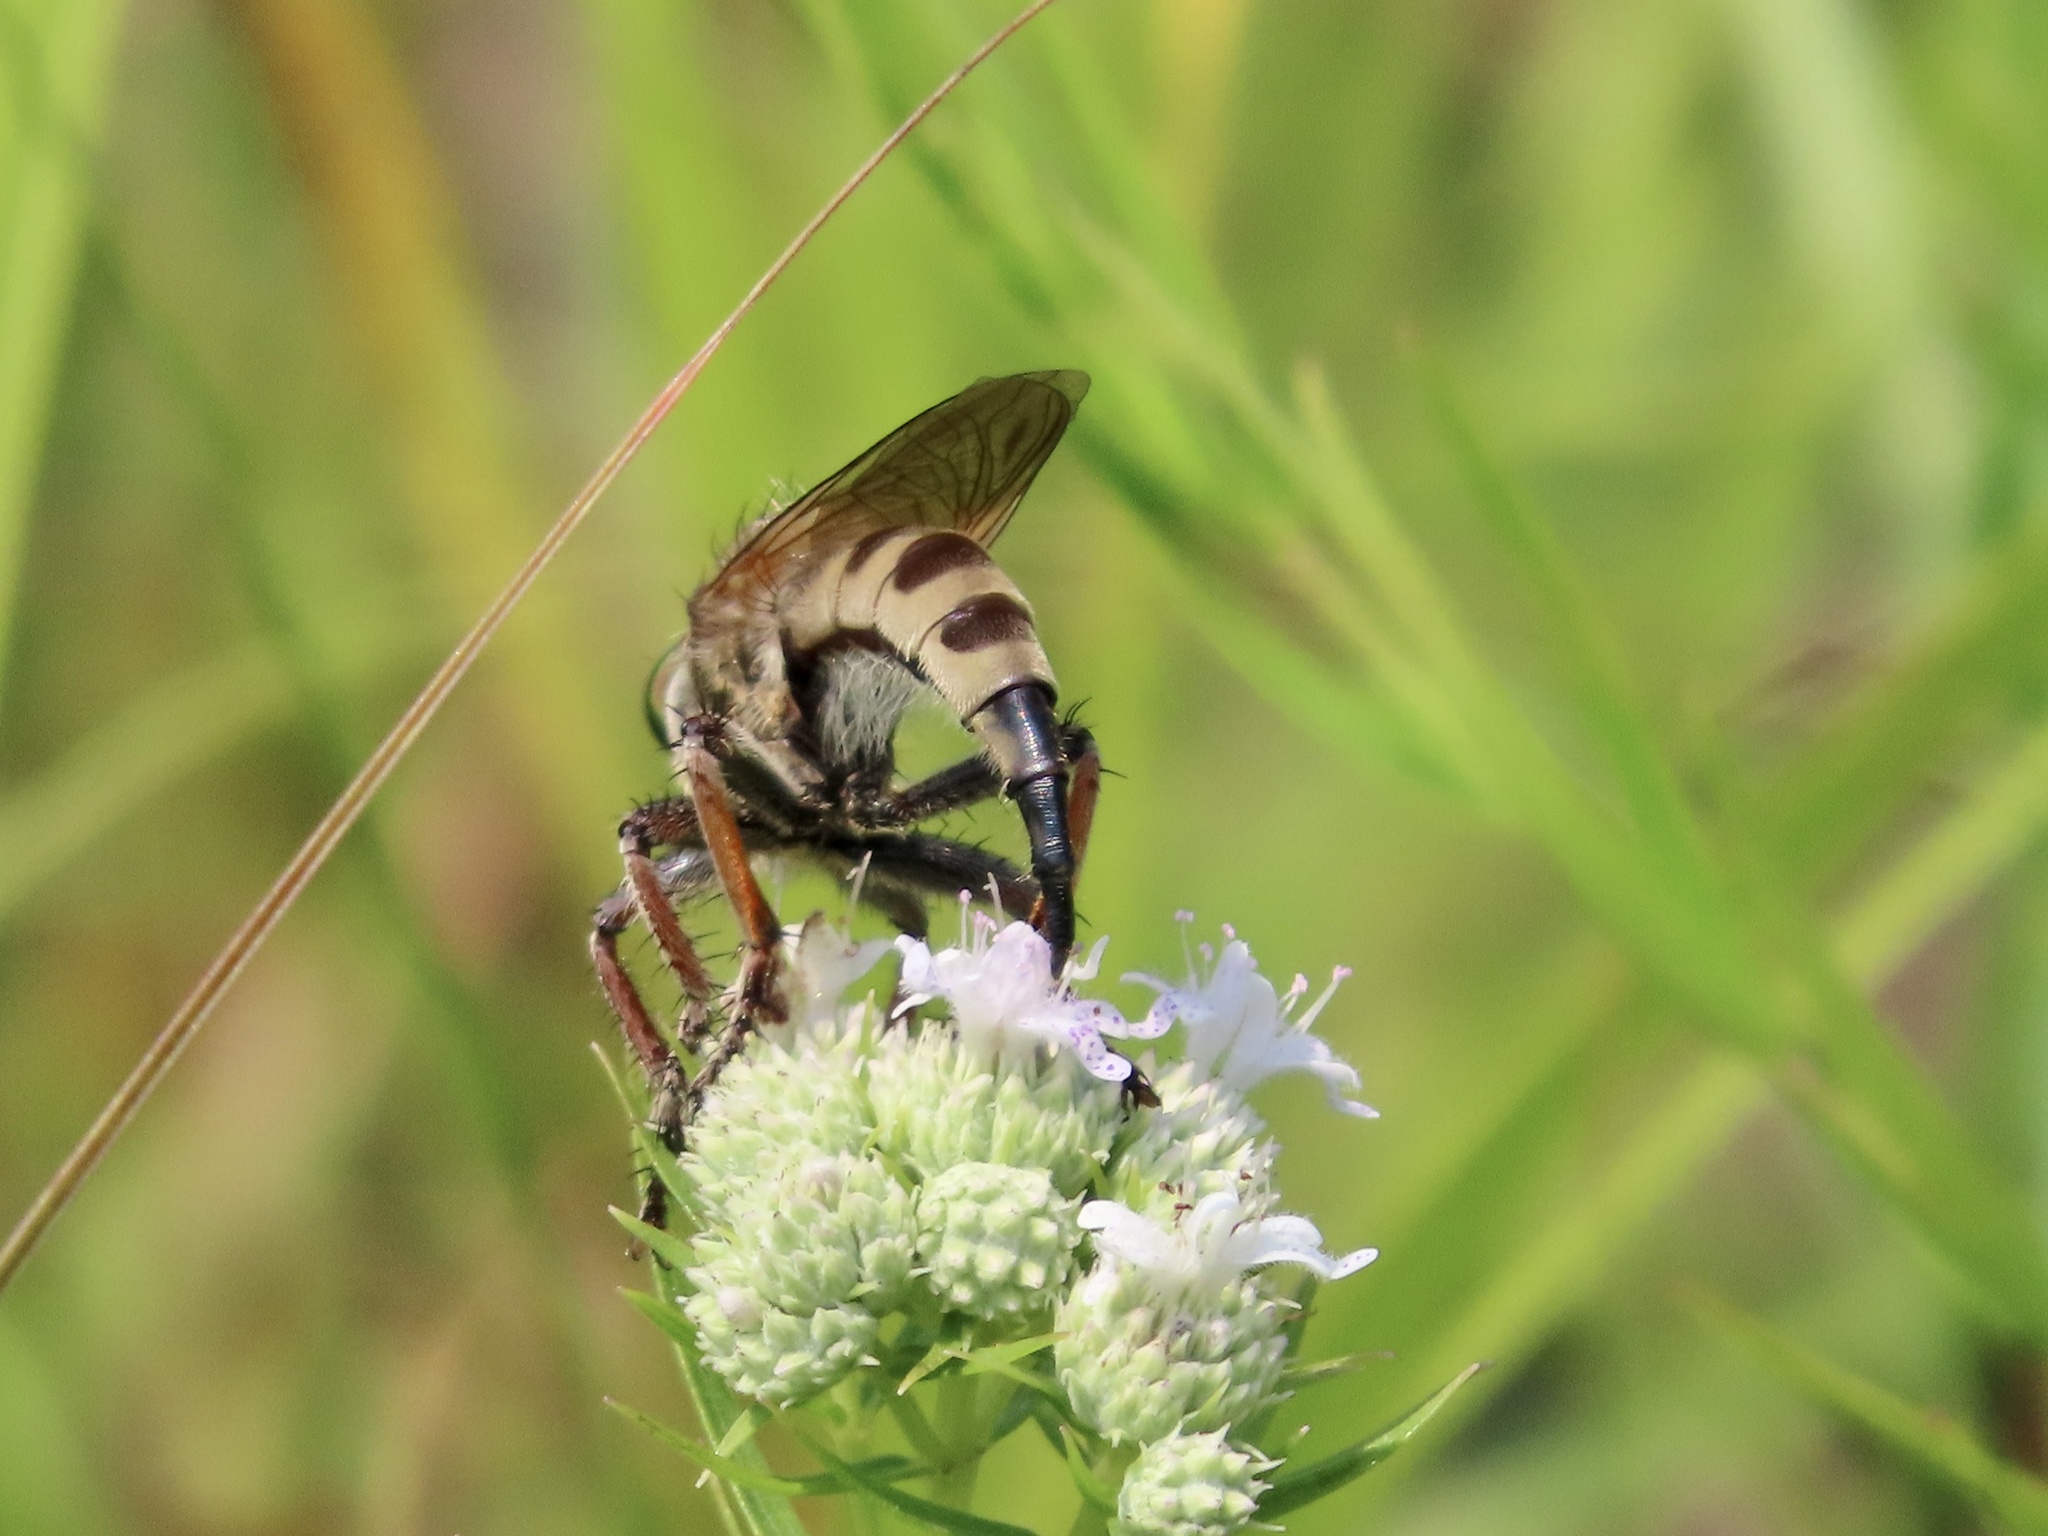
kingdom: Animalia
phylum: Arthropoda
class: Insecta
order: Diptera
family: Asilidae
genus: Promachus
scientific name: Promachus vertebratus
